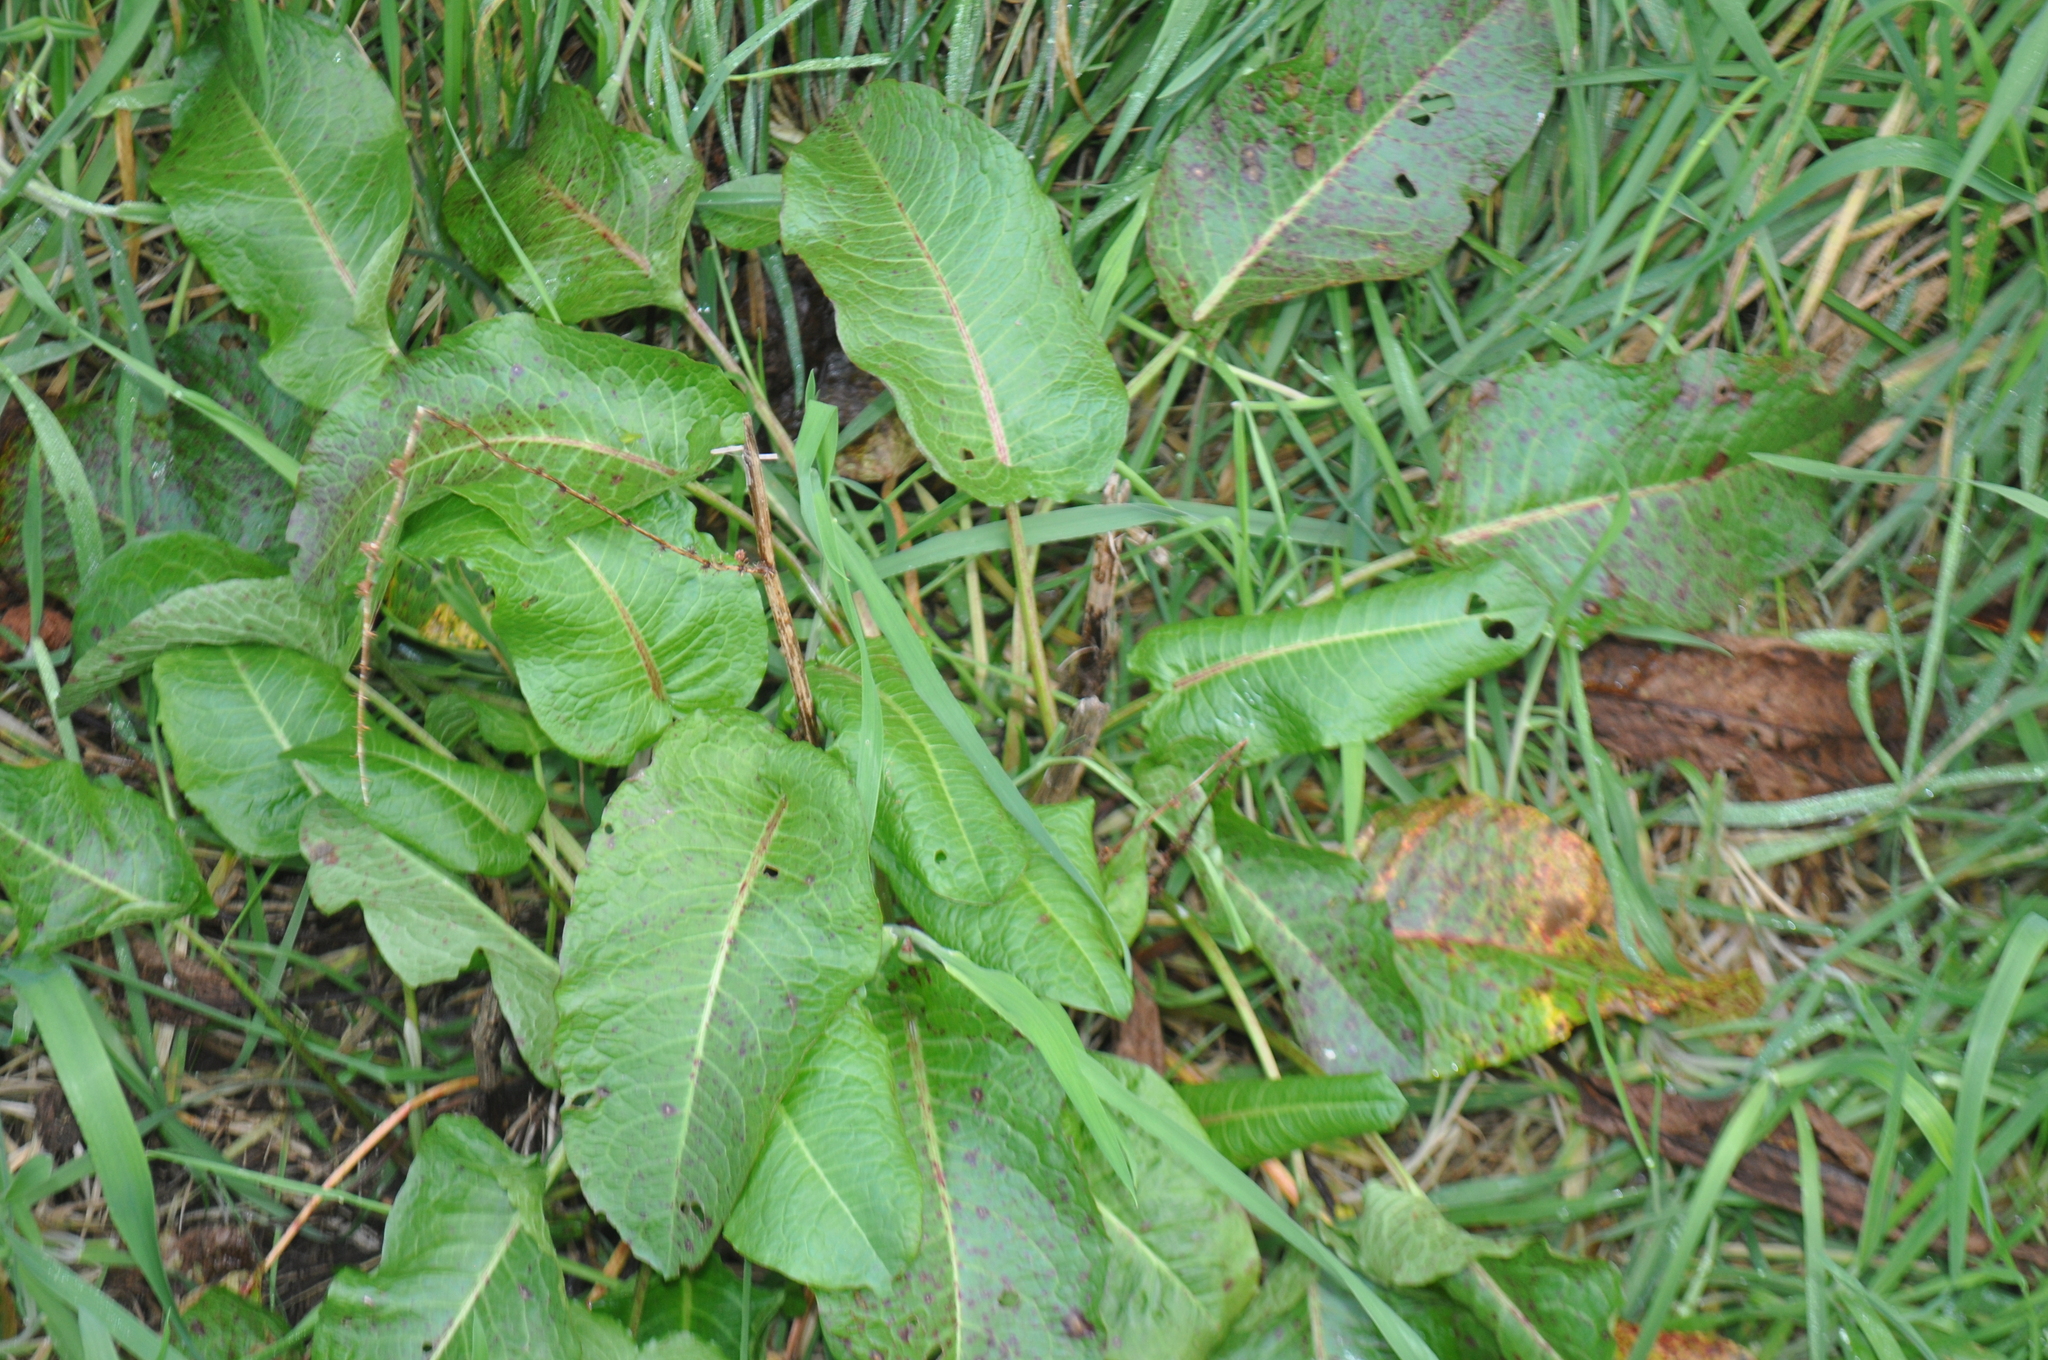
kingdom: Plantae
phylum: Tracheophyta
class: Magnoliopsida
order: Caryophyllales
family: Polygonaceae
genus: Rumex
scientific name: Rumex obtusifolius
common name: Bitter dock
